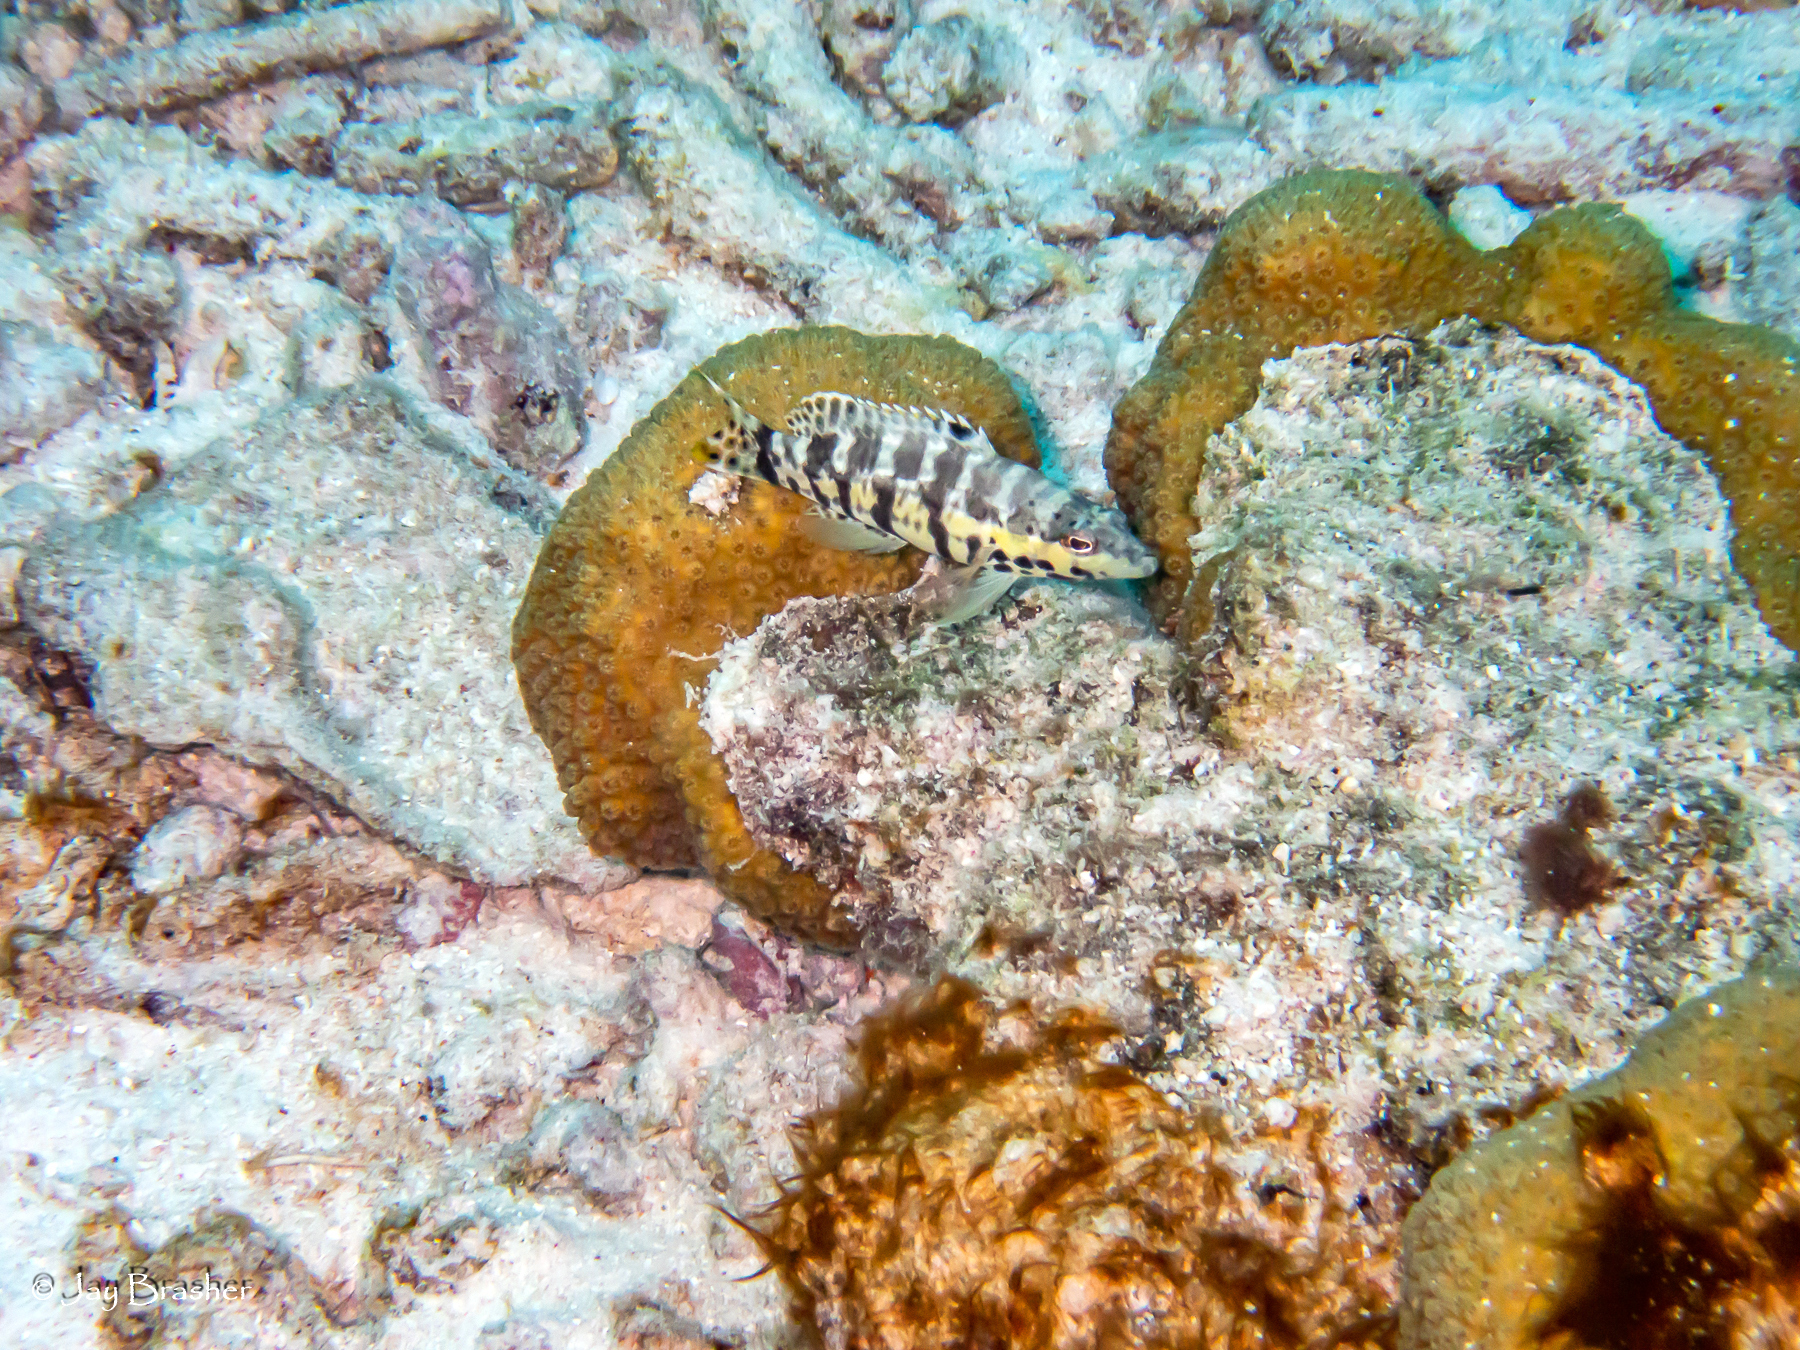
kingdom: Animalia
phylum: Chordata
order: Perciformes
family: Serranidae
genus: Serranus
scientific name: Serranus tigrinus
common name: Harlequin bass
